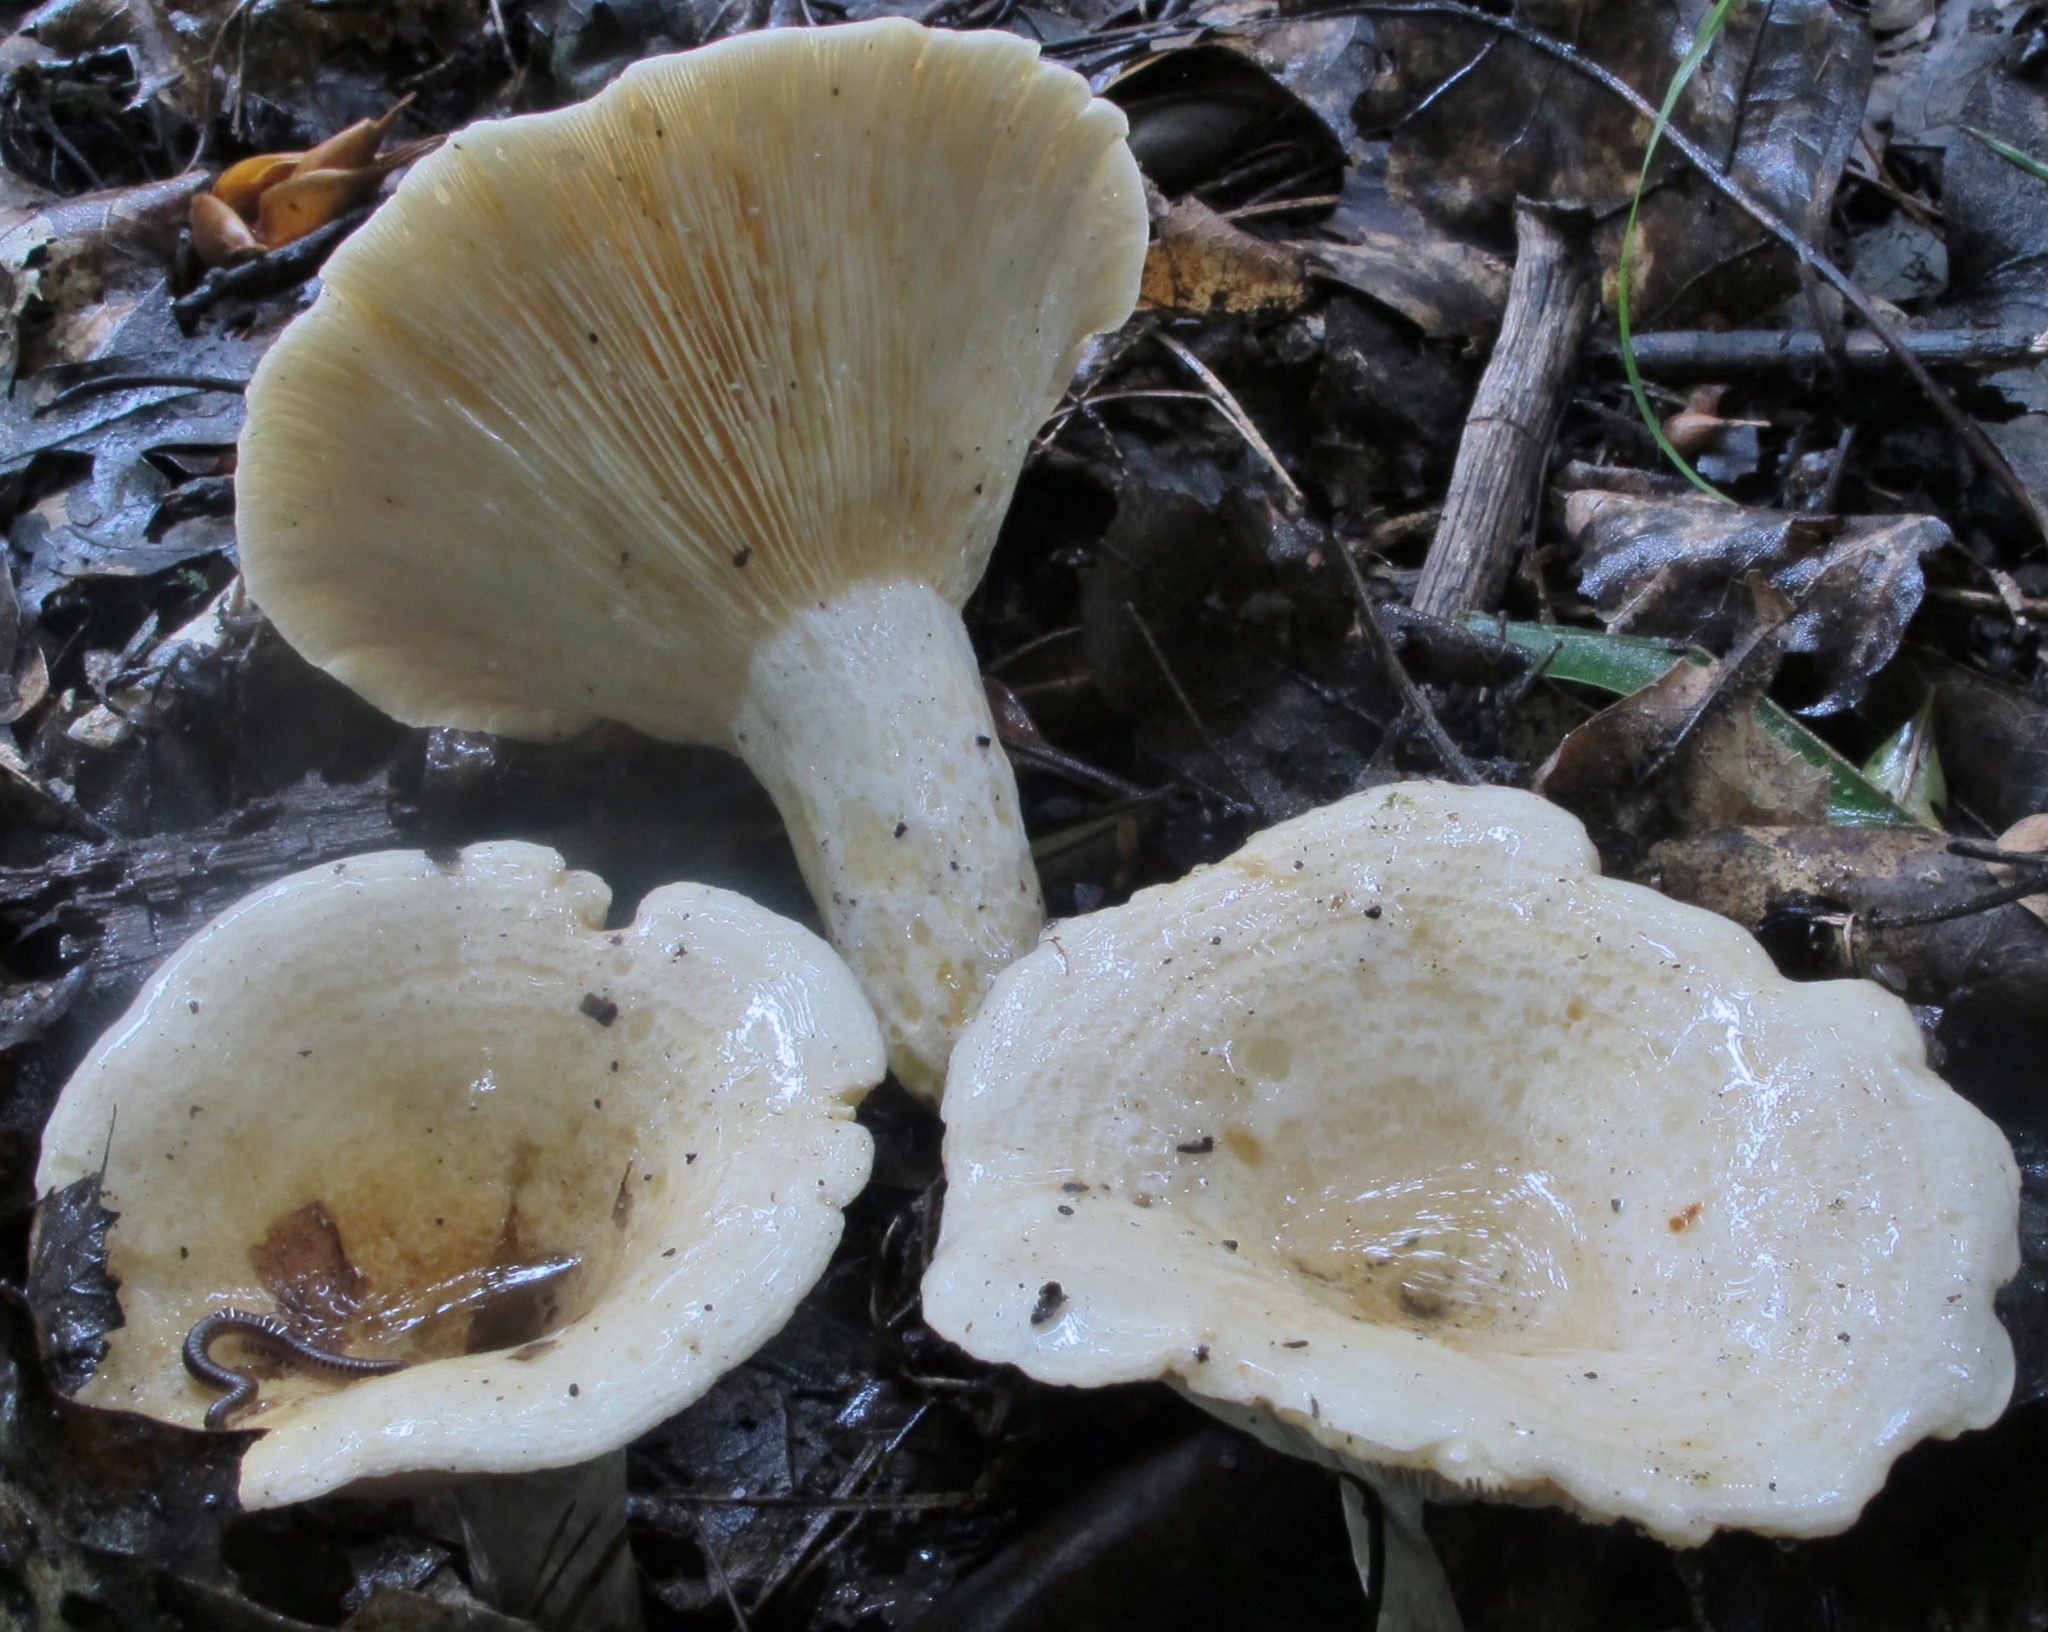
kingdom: Fungi
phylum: Basidiomycota
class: Agaricomycetes
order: Russulales
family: Russulaceae
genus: Lactarius
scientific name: Lactarius maculatipes
